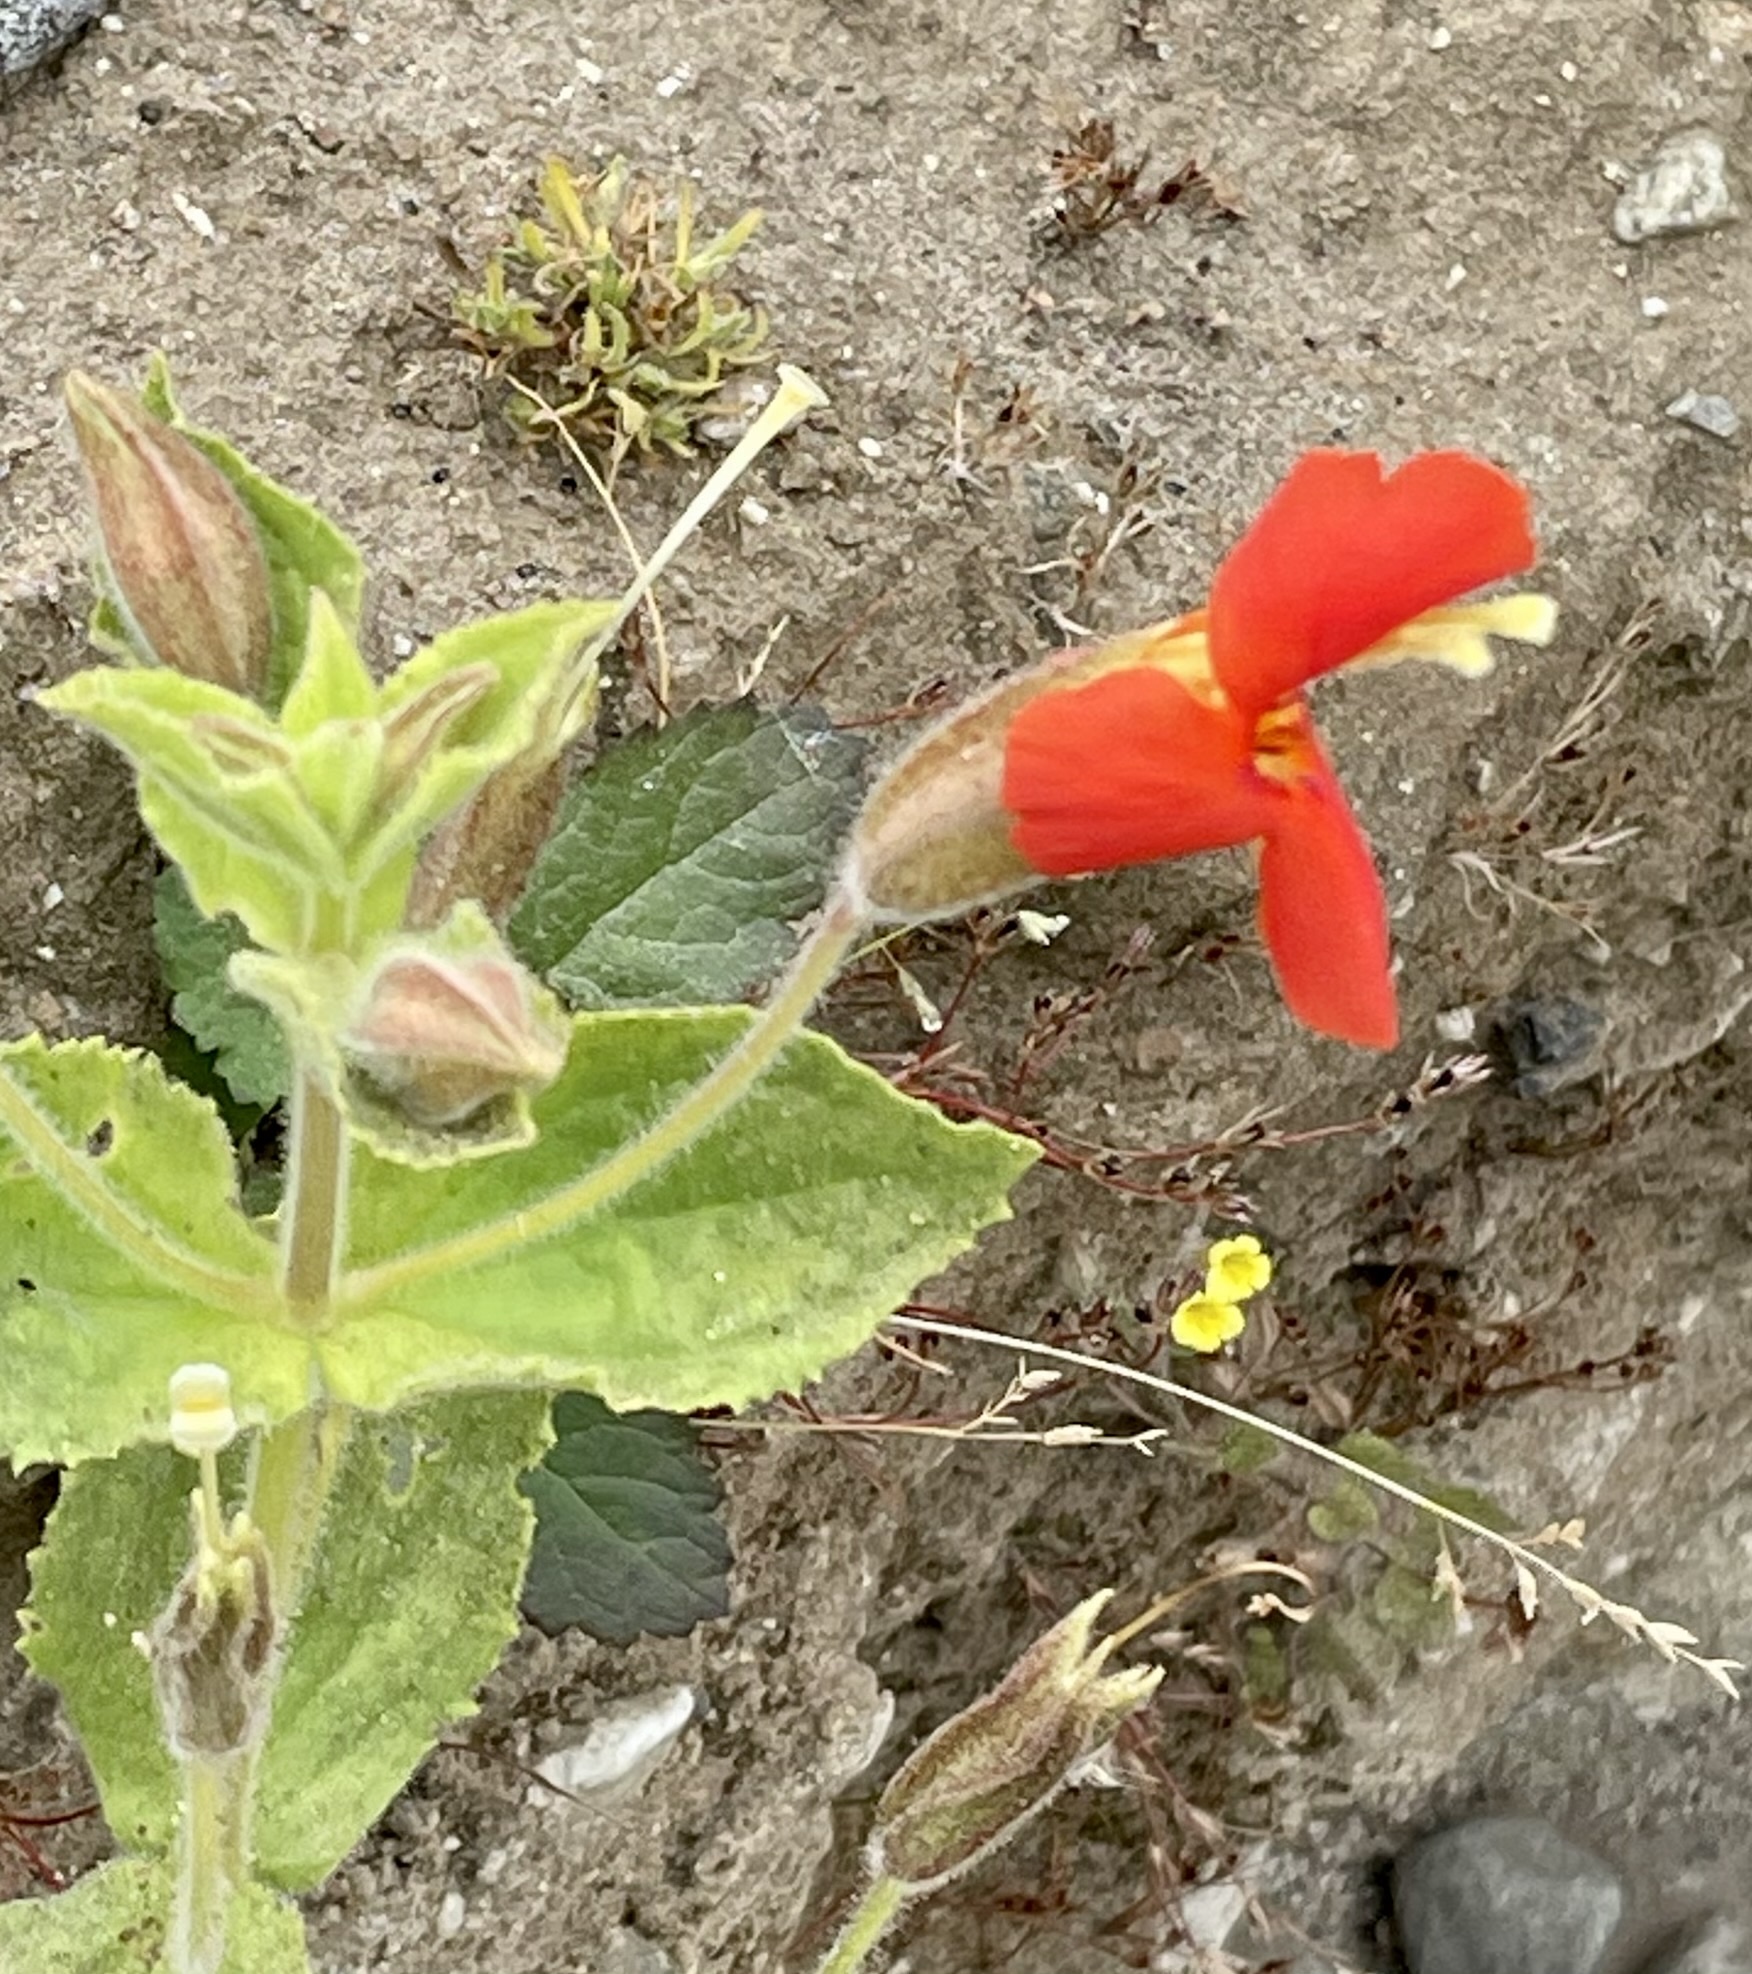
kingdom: Plantae
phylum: Tracheophyta
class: Magnoliopsida
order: Lamiales
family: Phrymaceae
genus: Erythranthe
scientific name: Erythranthe cardinalis
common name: Scarlet monkey-flower
